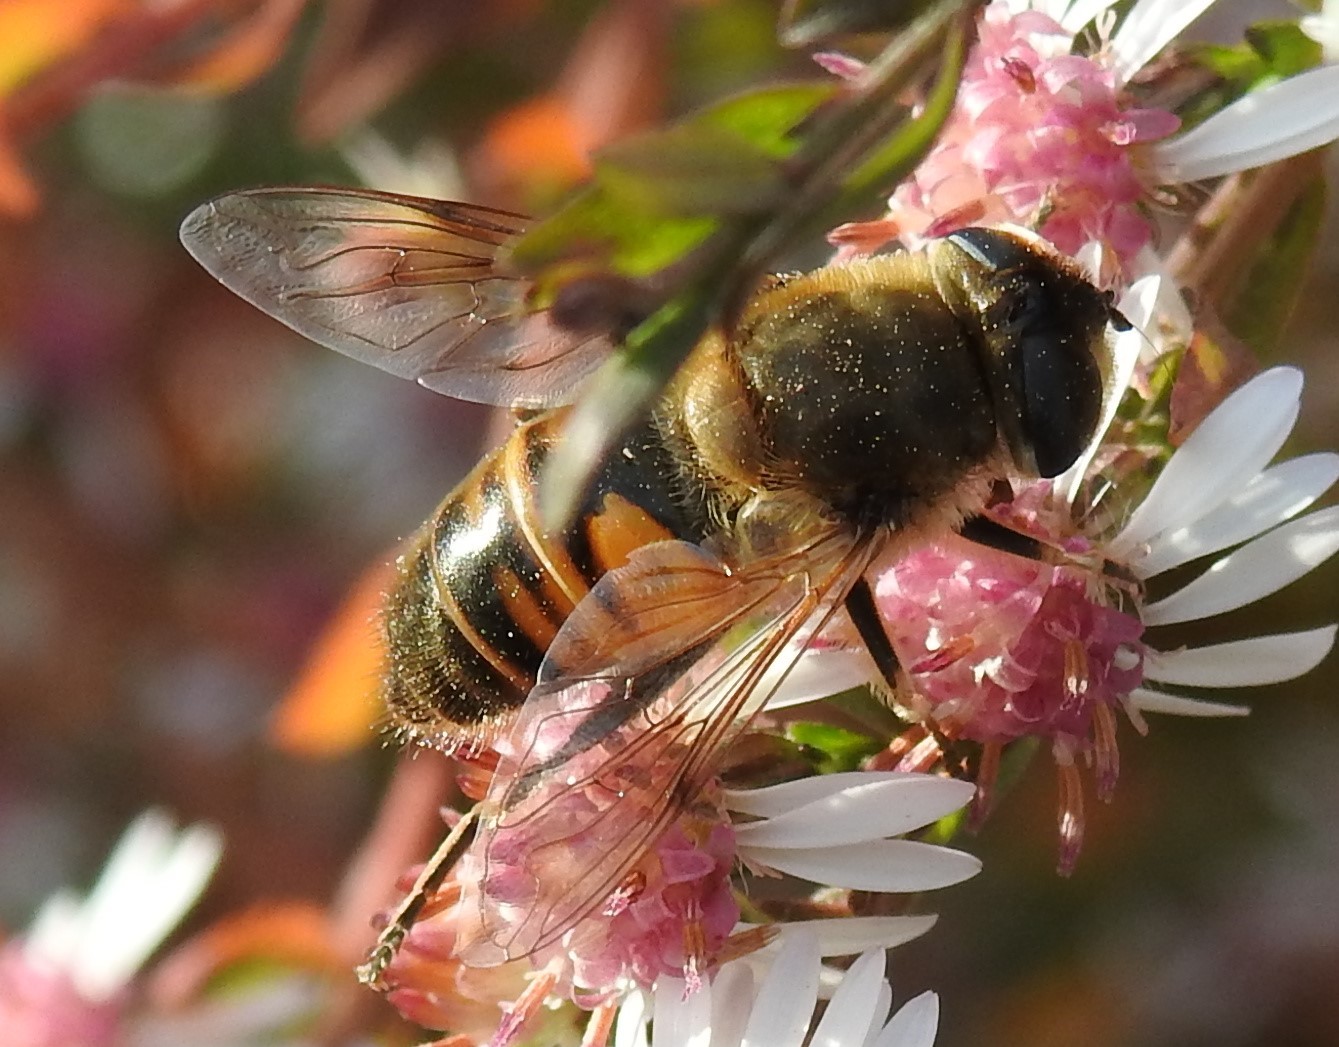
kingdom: Animalia
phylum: Arthropoda
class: Insecta
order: Diptera
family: Syrphidae
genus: Eristalis
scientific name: Eristalis tenax
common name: Drone fly
